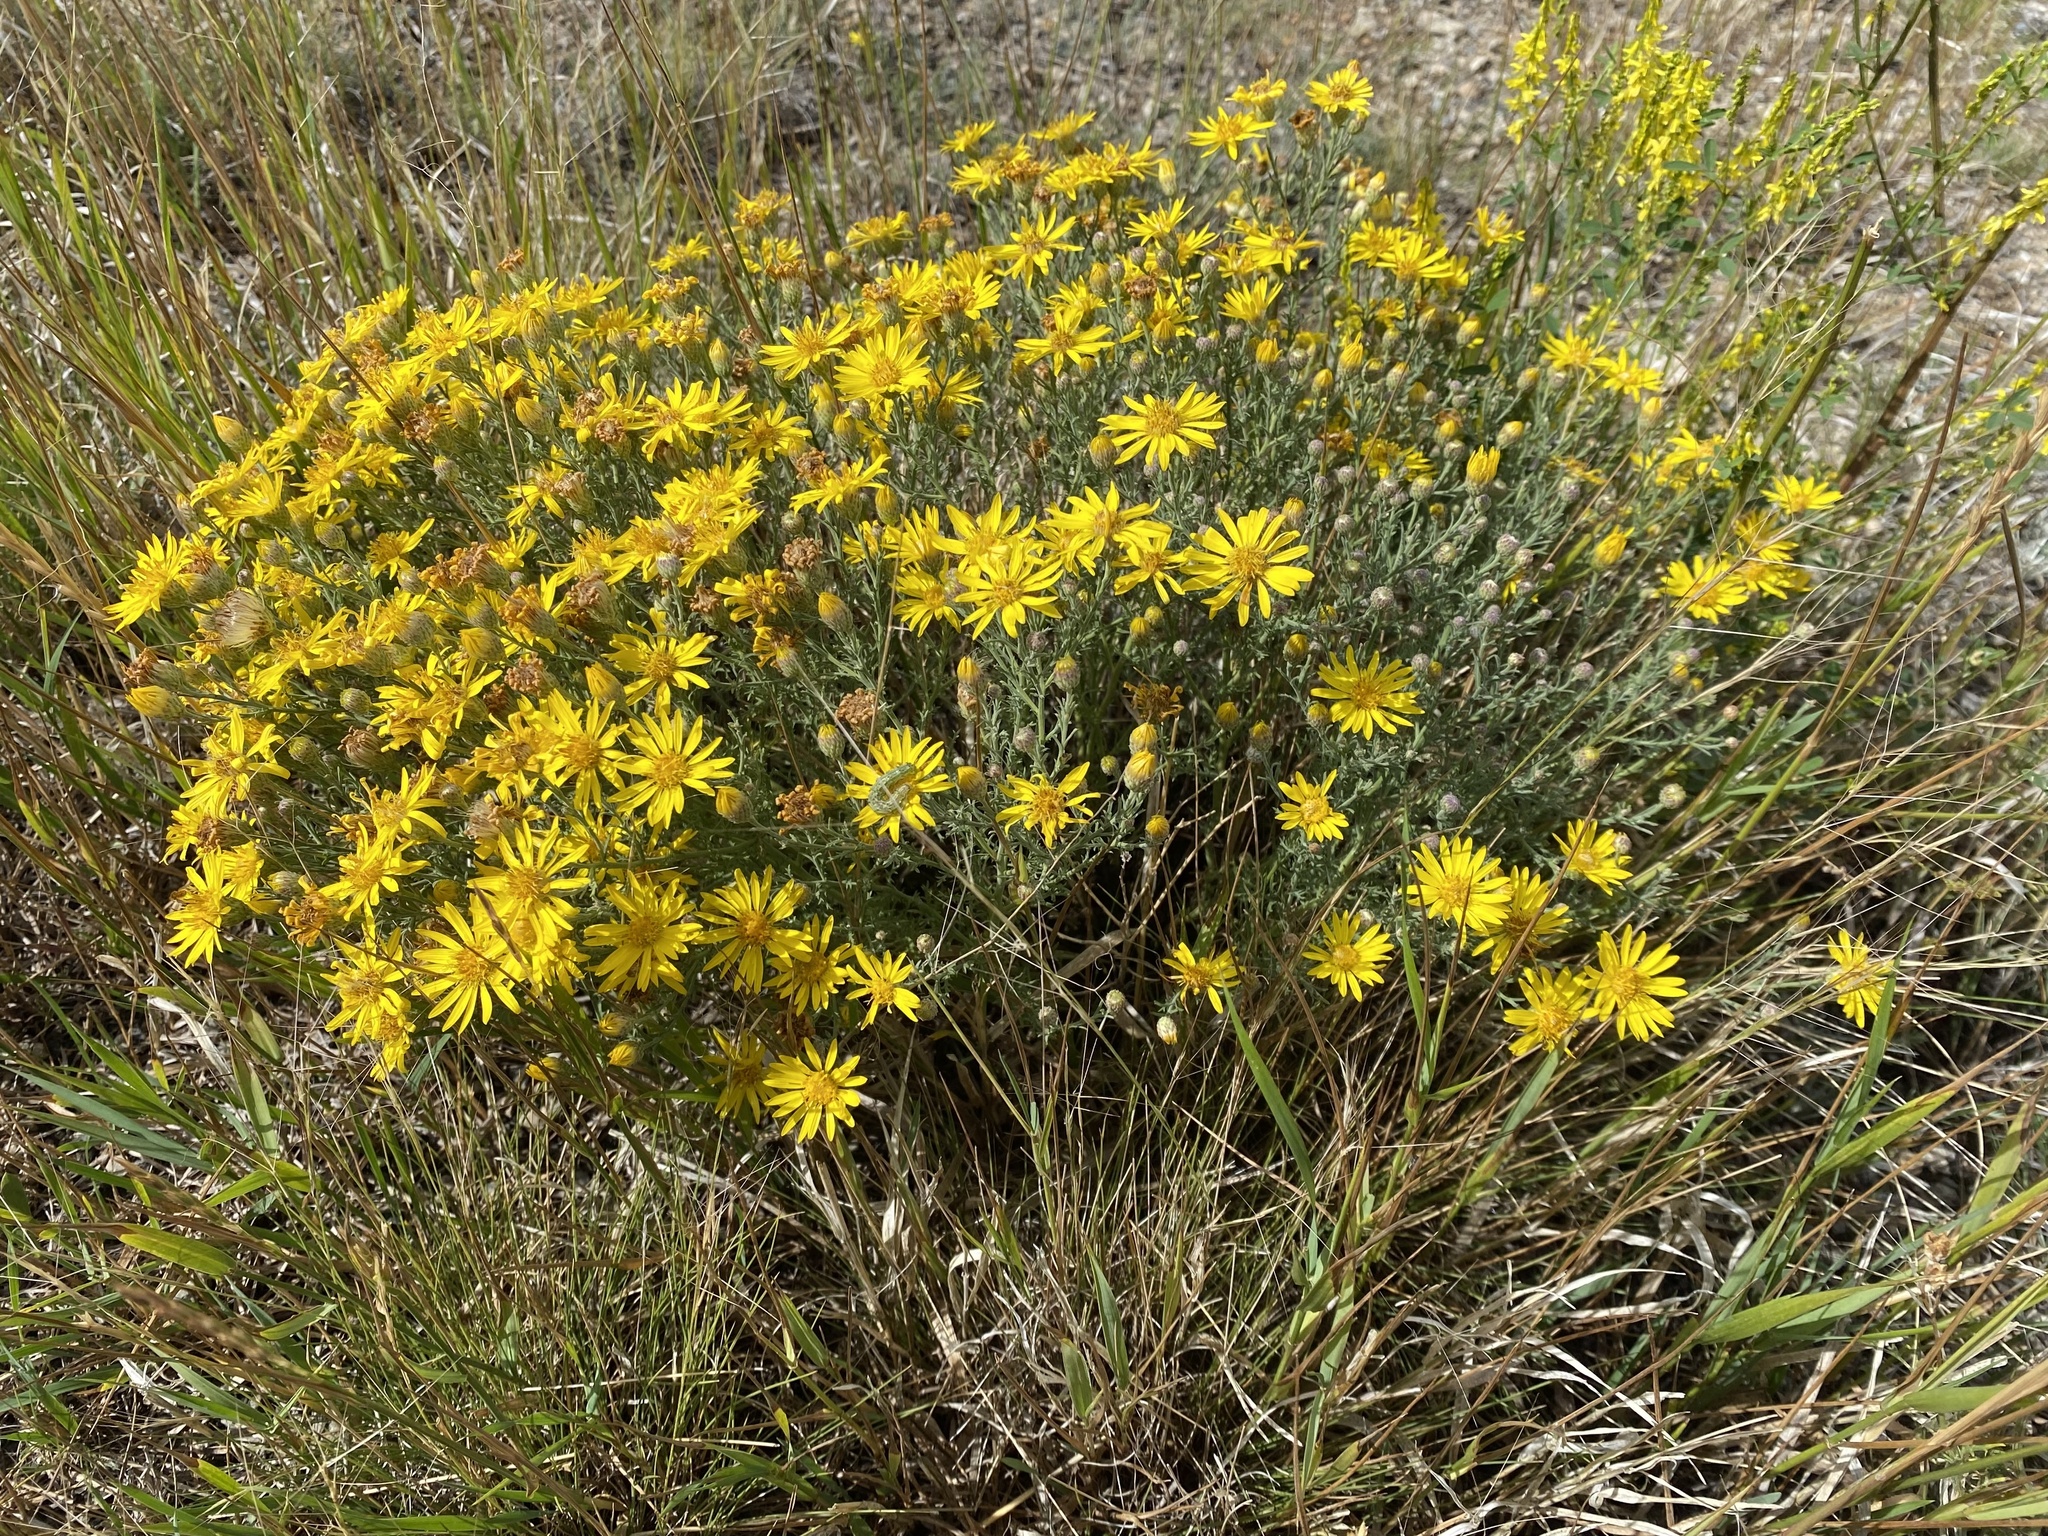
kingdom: Plantae
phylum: Tracheophyta
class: Magnoliopsida
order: Asterales
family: Asteraceae
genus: Xanthisma
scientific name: Xanthisma spinulosum
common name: Spiny goldenweed
